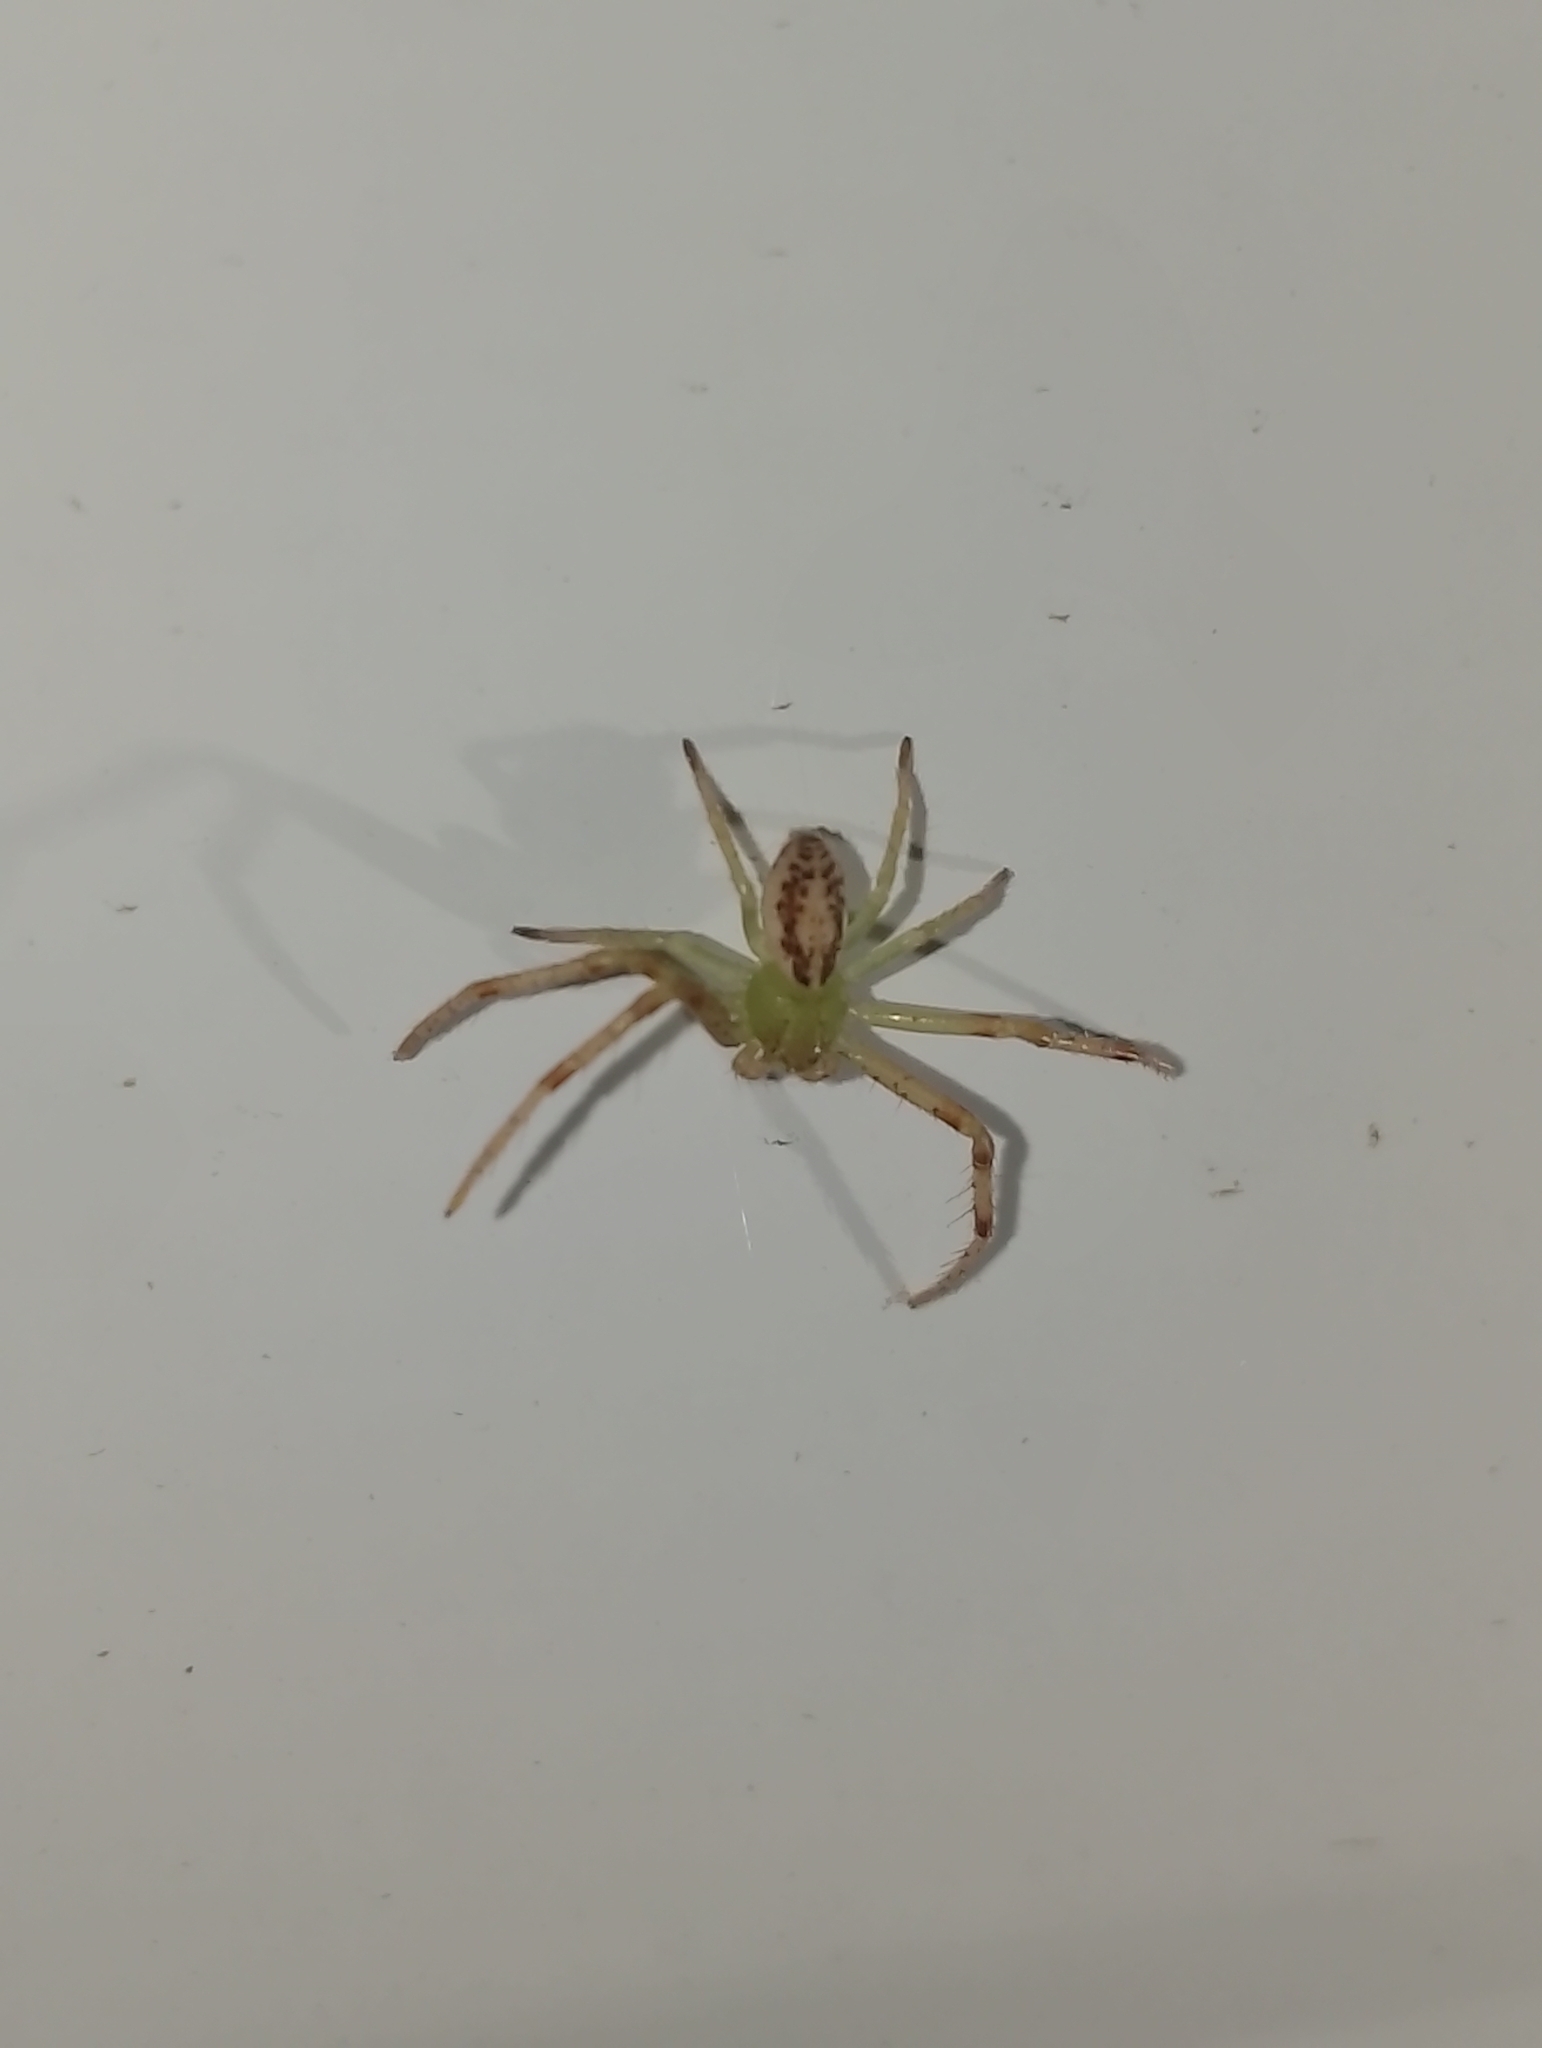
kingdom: Animalia
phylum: Arthropoda
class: Arachnida
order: Araneae
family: Thomisidae
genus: Diaea
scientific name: Diaea livens
